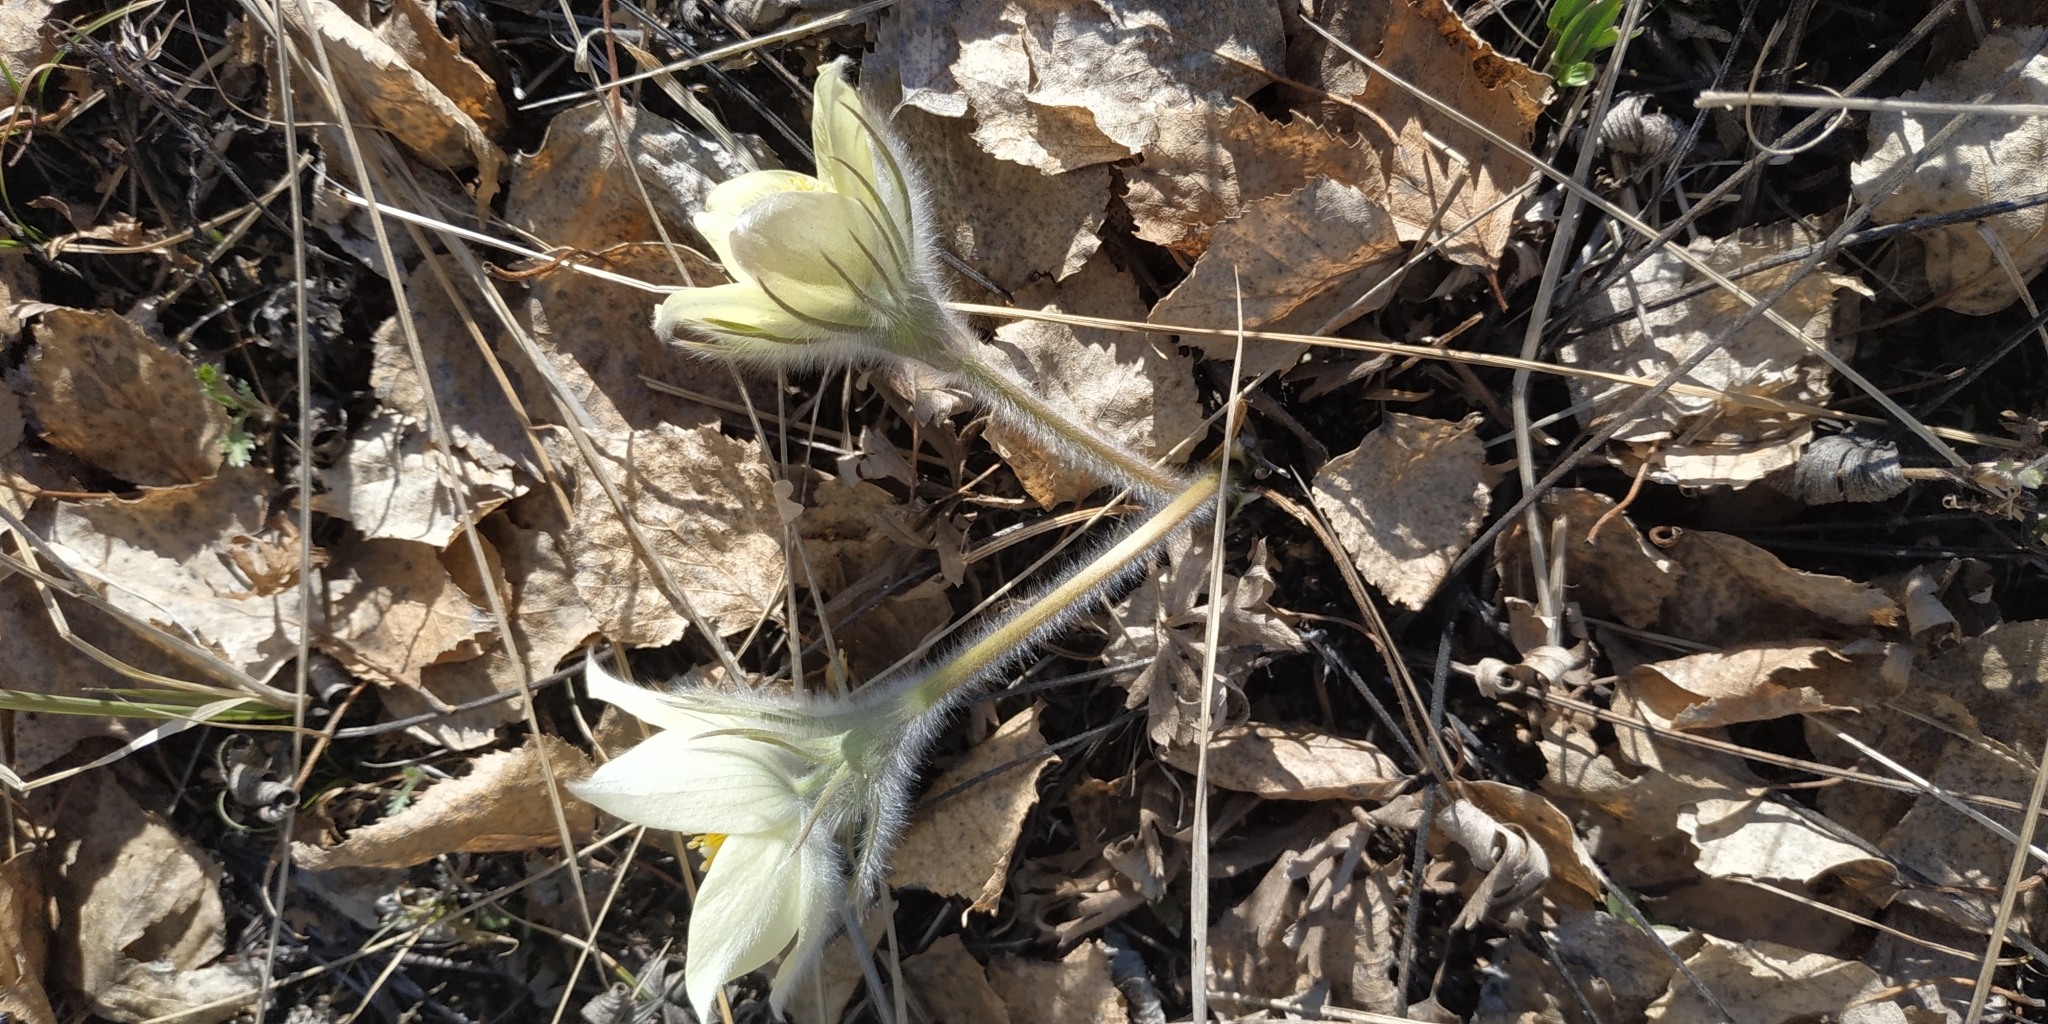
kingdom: Plantae
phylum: Tracheophyta
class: Magnoliopsida
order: Ranunculales
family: Ranunculaceae
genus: Pulsatilla
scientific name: Pulsatilla patens
